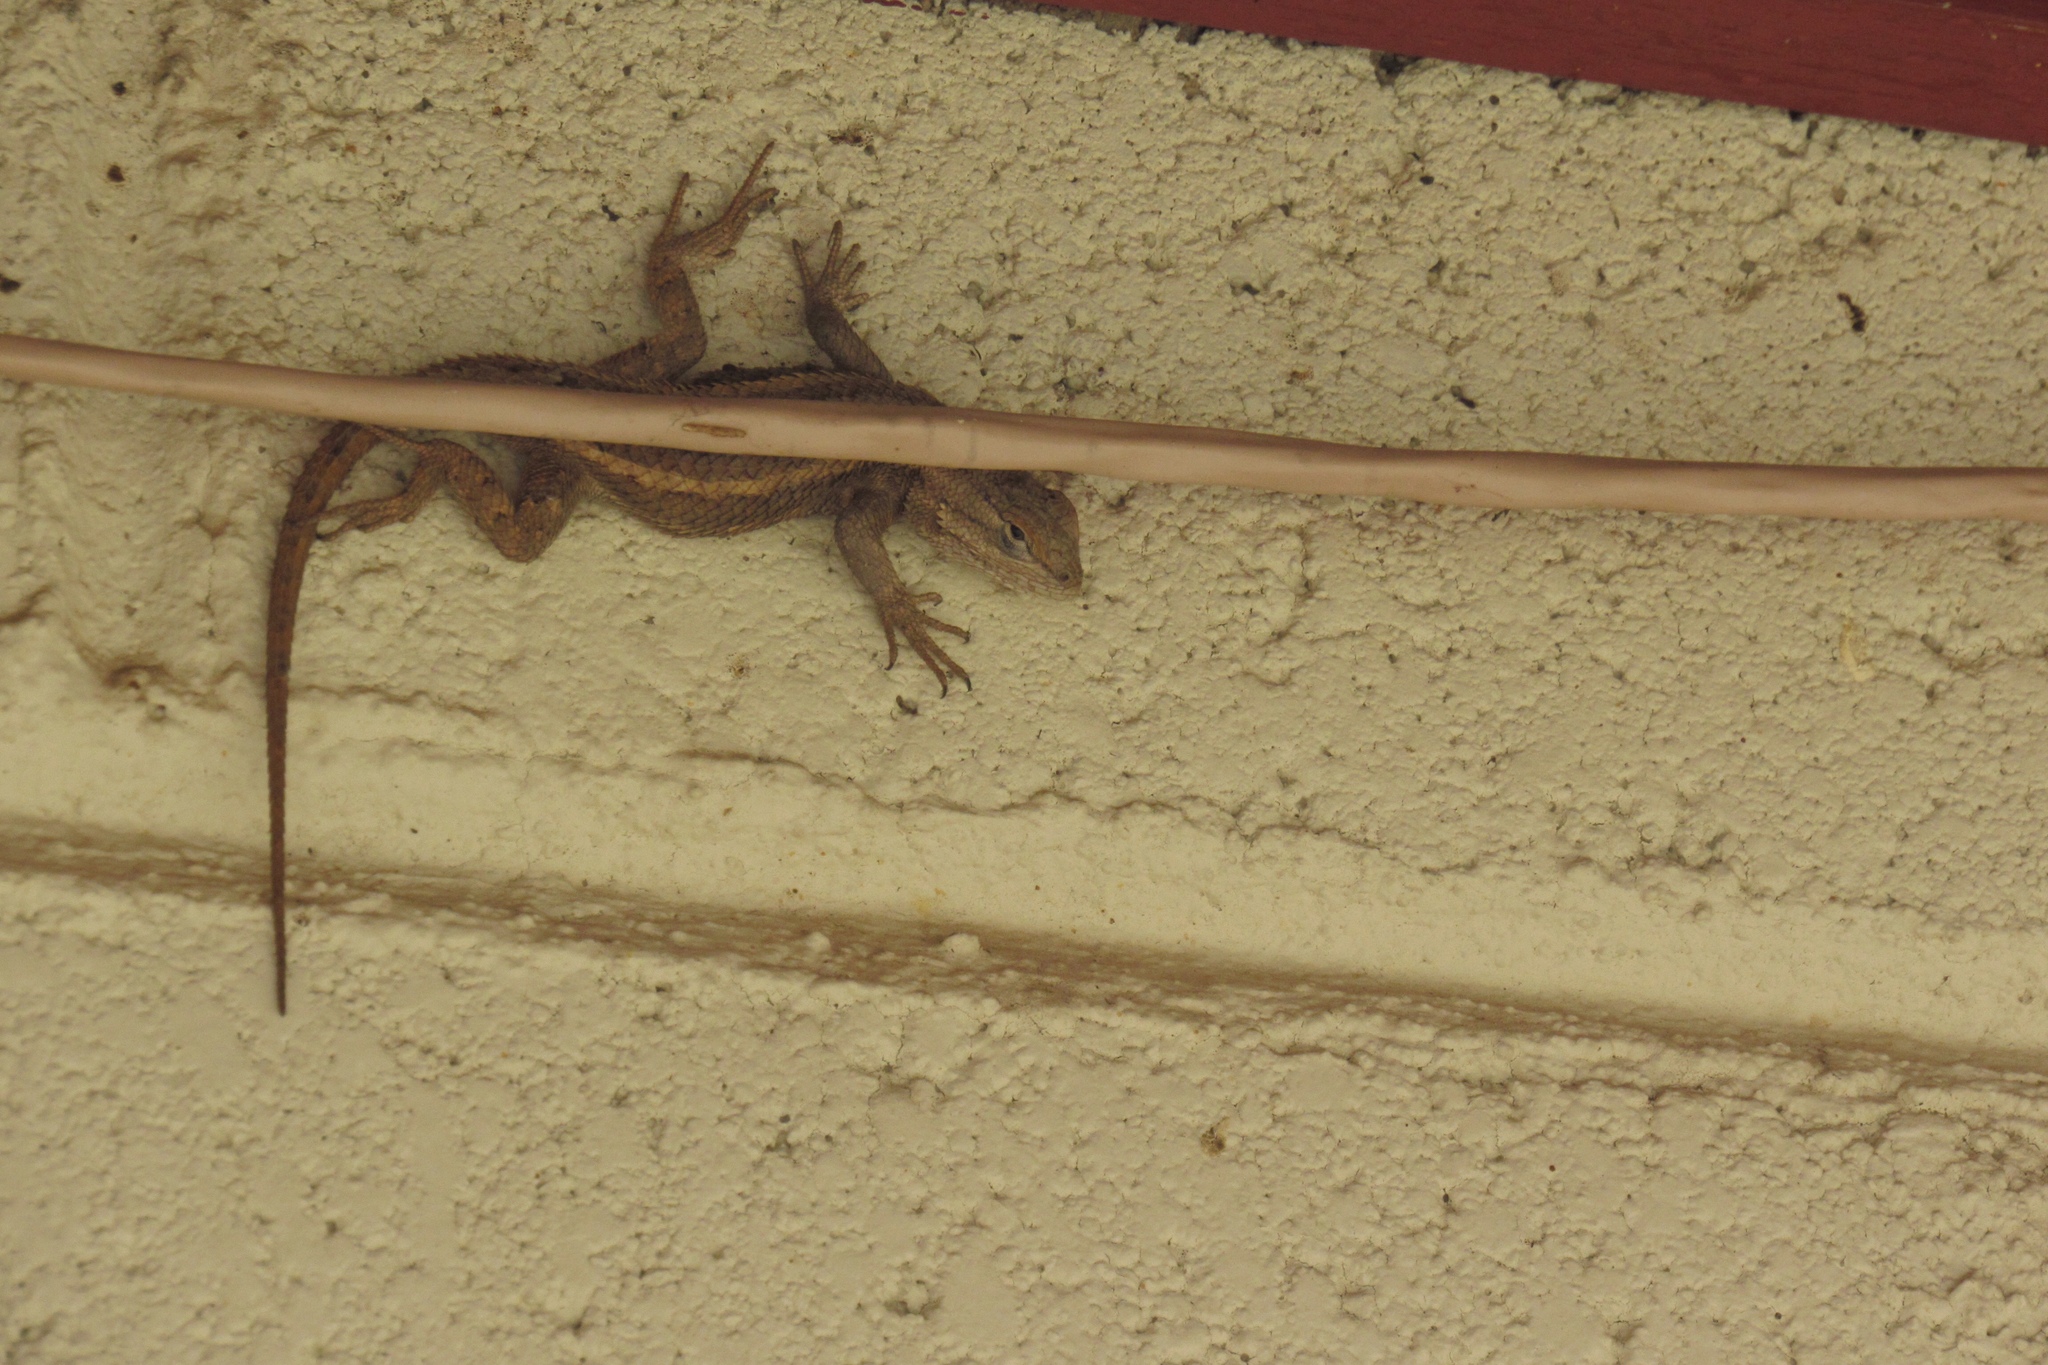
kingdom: Animalia
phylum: Chordata
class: Squamata
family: Phrynosomatidae
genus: Sceloporus
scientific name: Sceloporus cowlesi
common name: White sands prairie lizard
